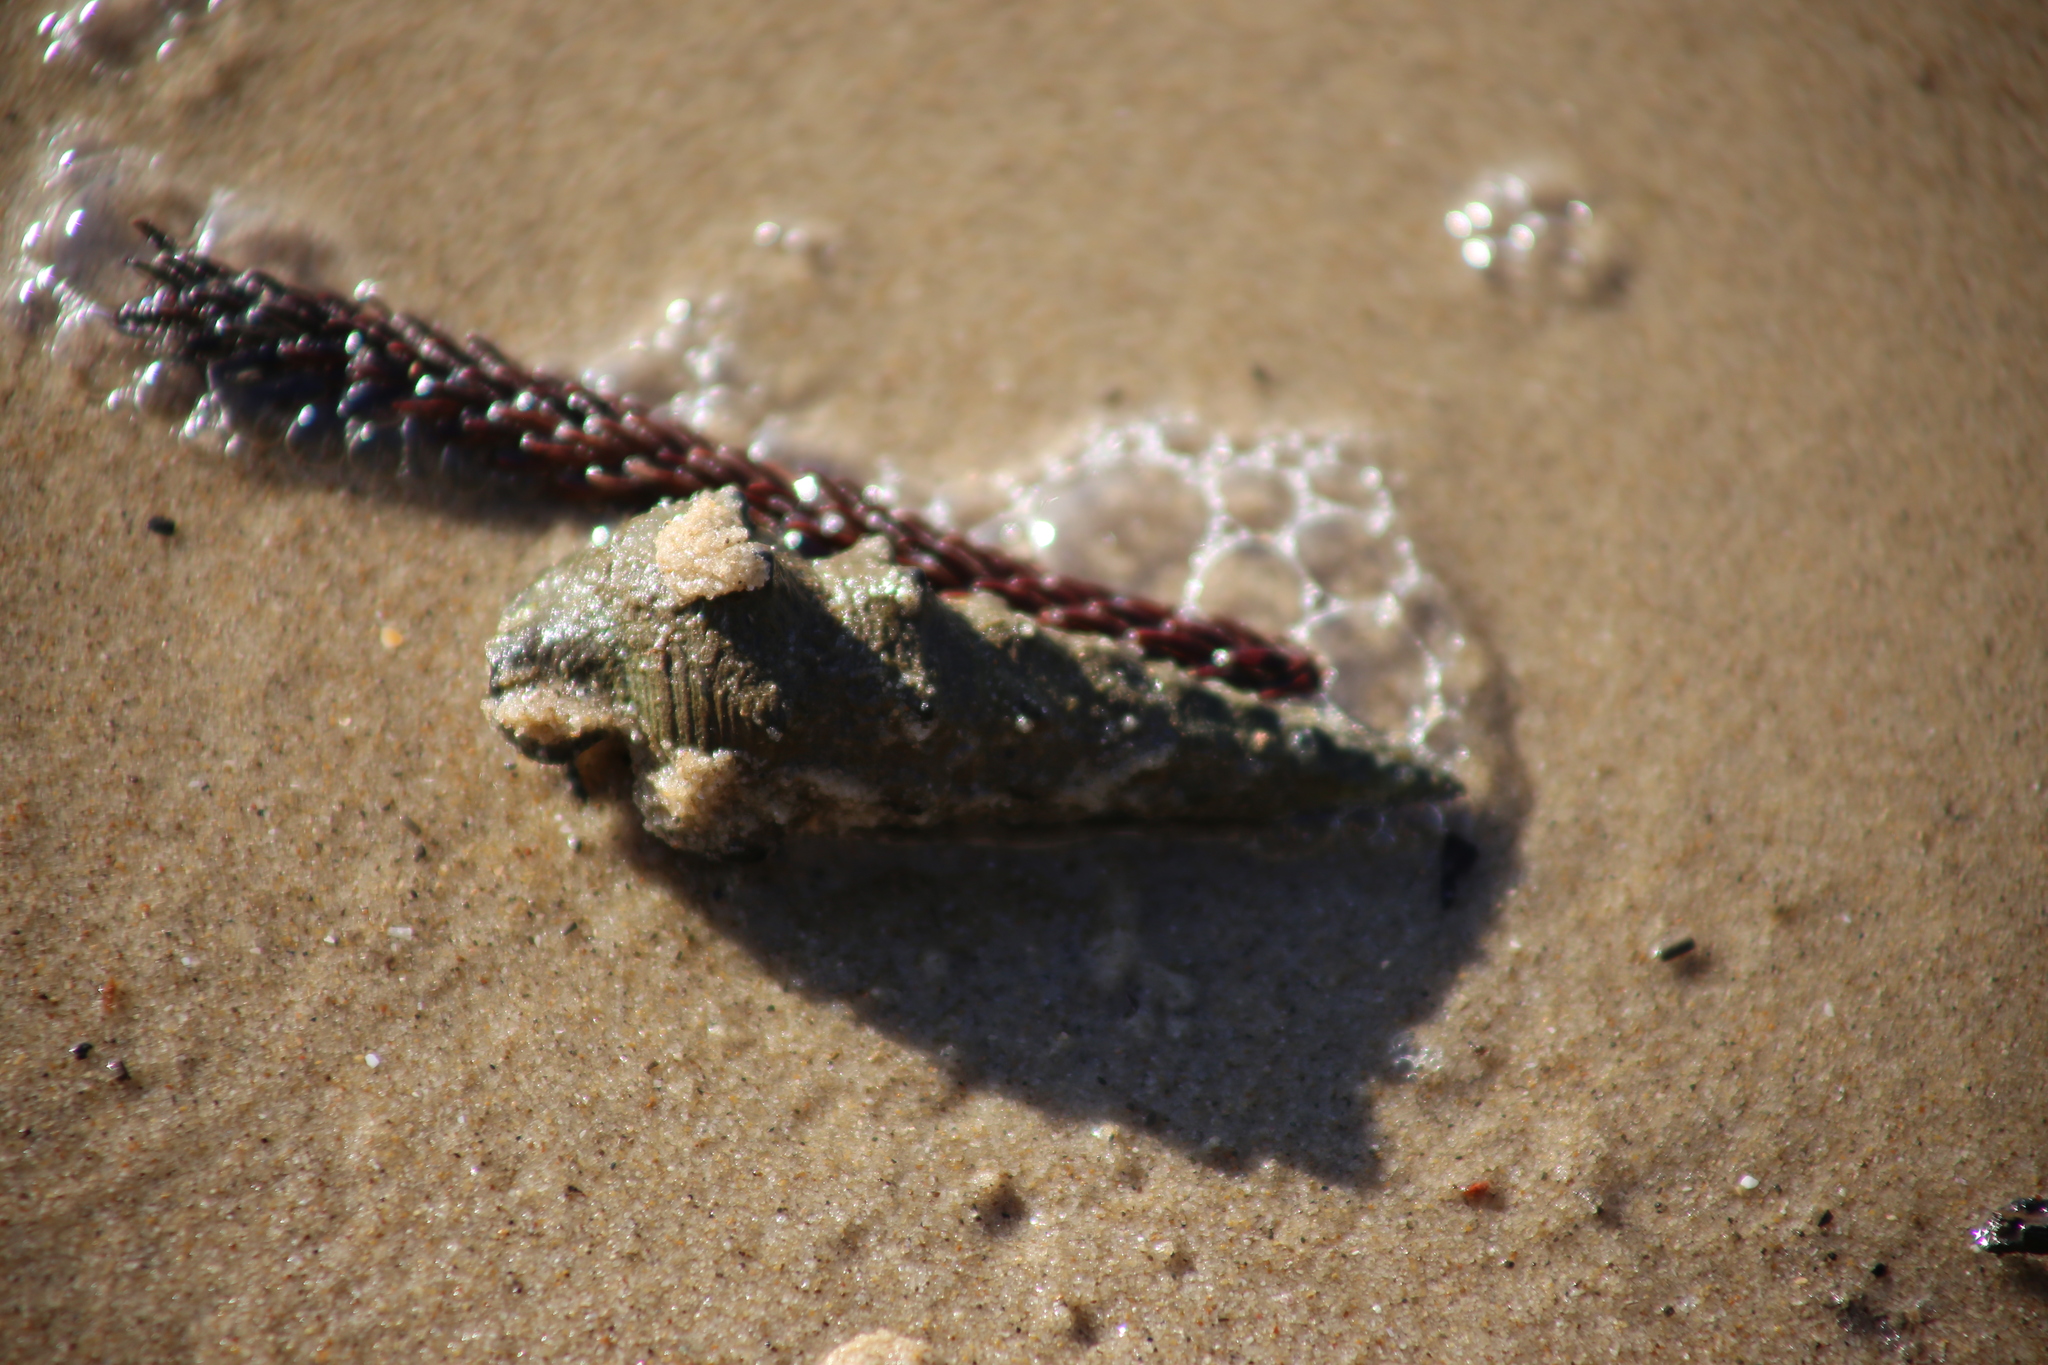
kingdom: Animalia
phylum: Mollusca
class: Gastropoda
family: Batillariidae
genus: Pyrazus
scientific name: Pyrazus ebeninus
